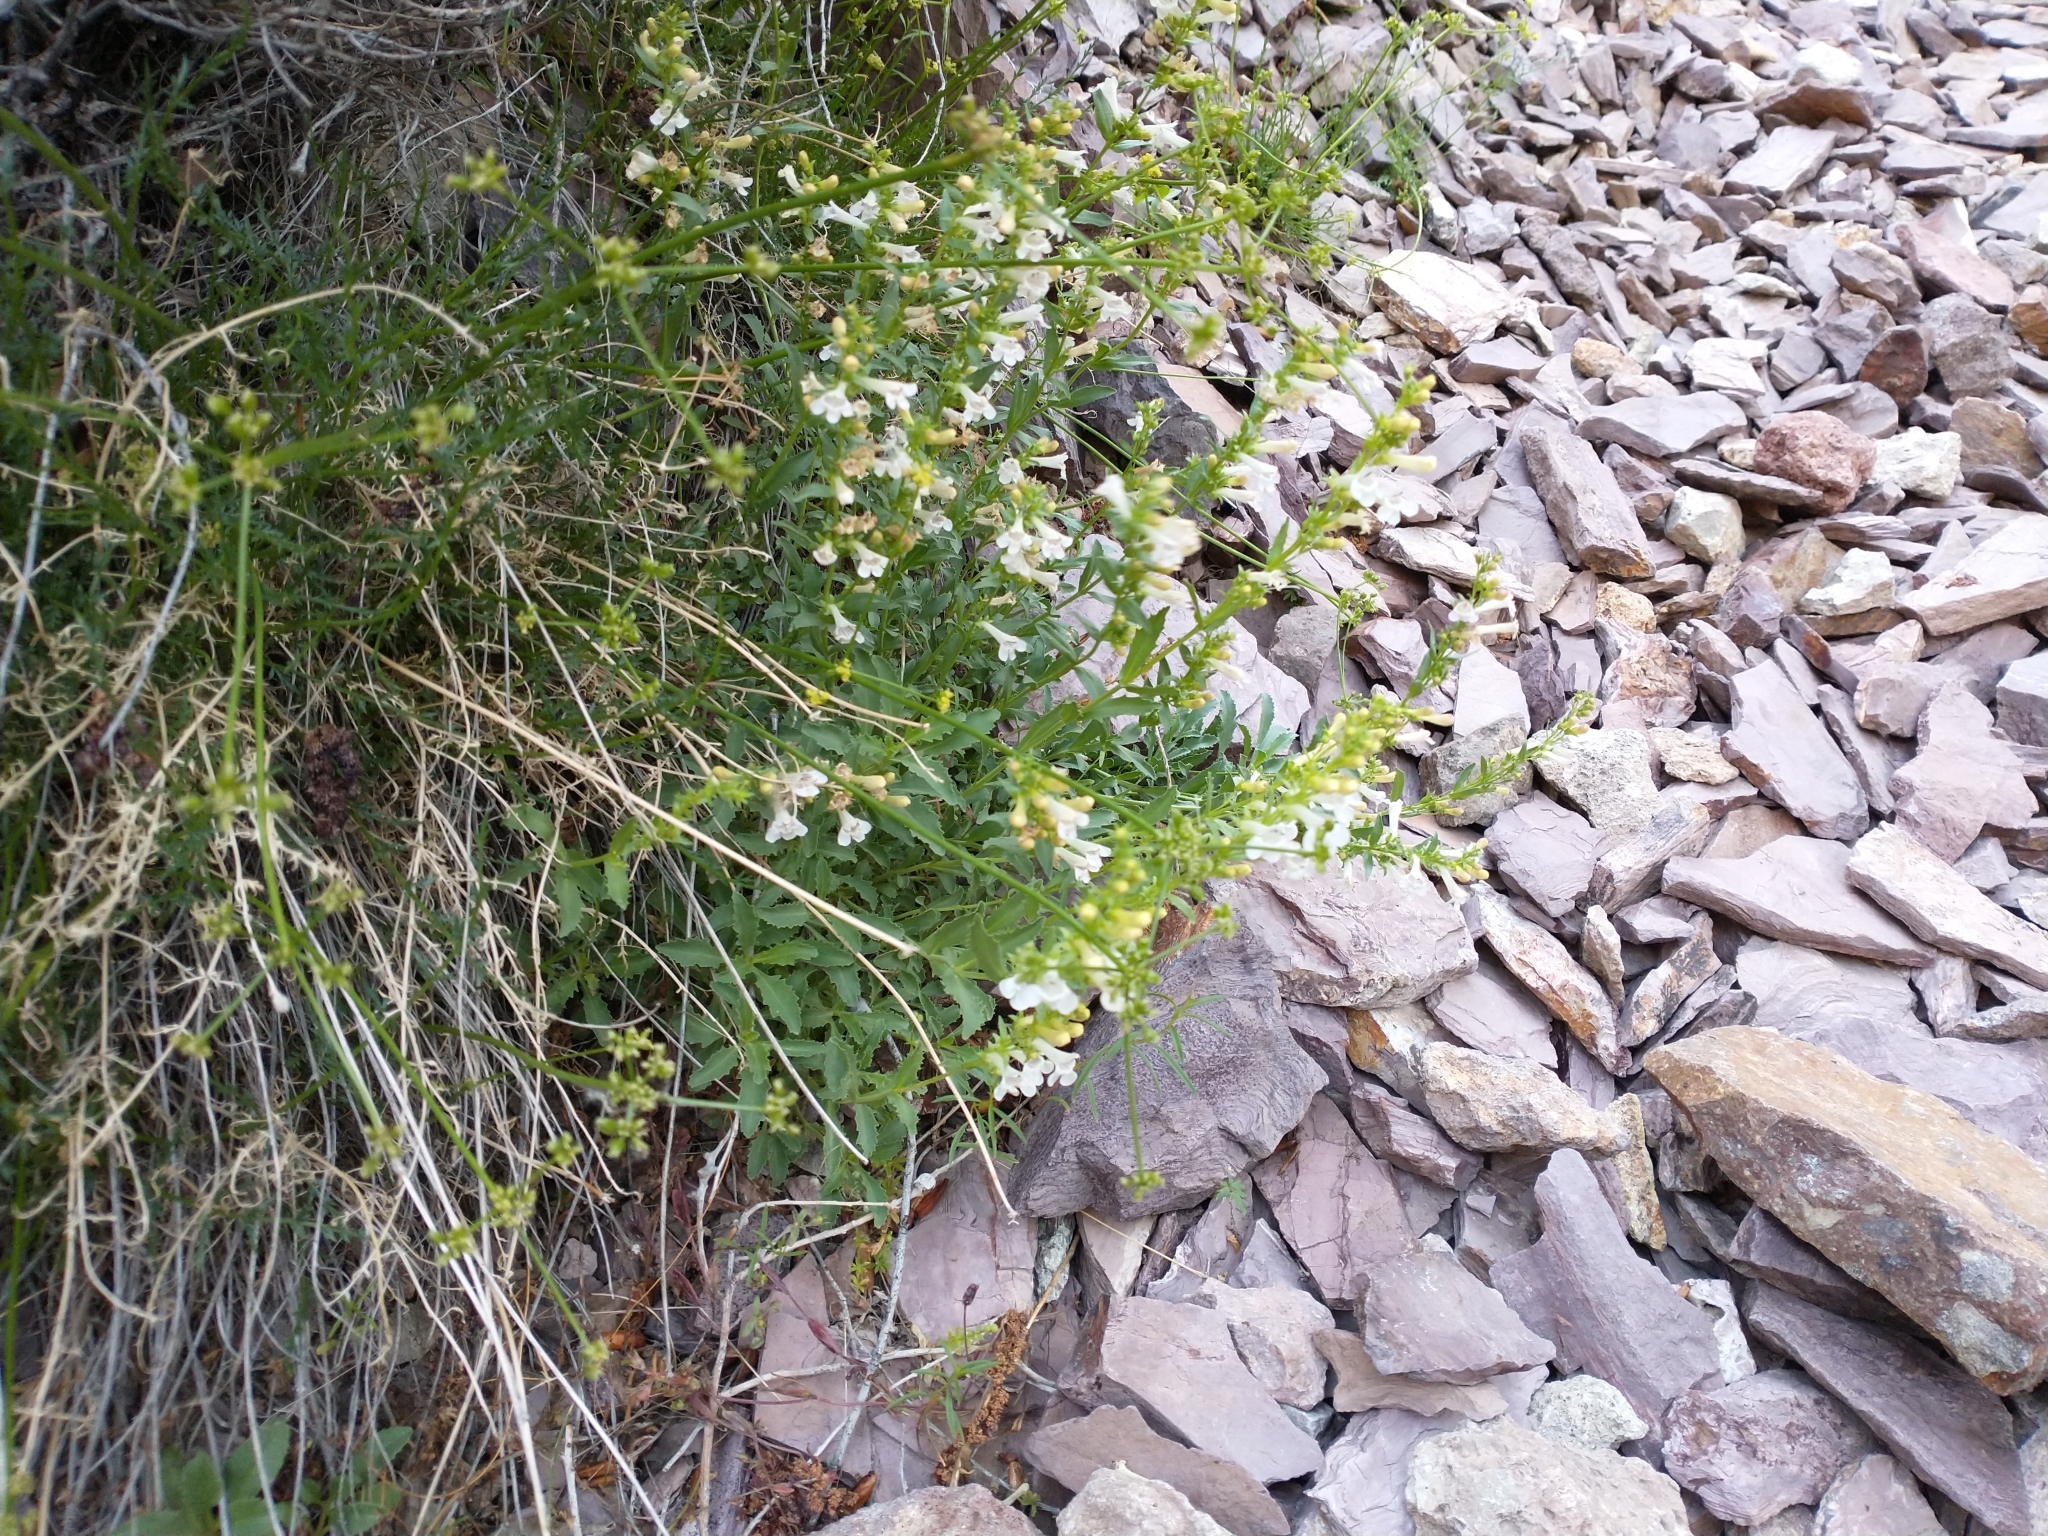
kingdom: Plantae
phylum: Tracheophyta
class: Magnoliopsida
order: Lamiales
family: Plantaginaceae
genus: Penstemon
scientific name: Penstemon deustus
